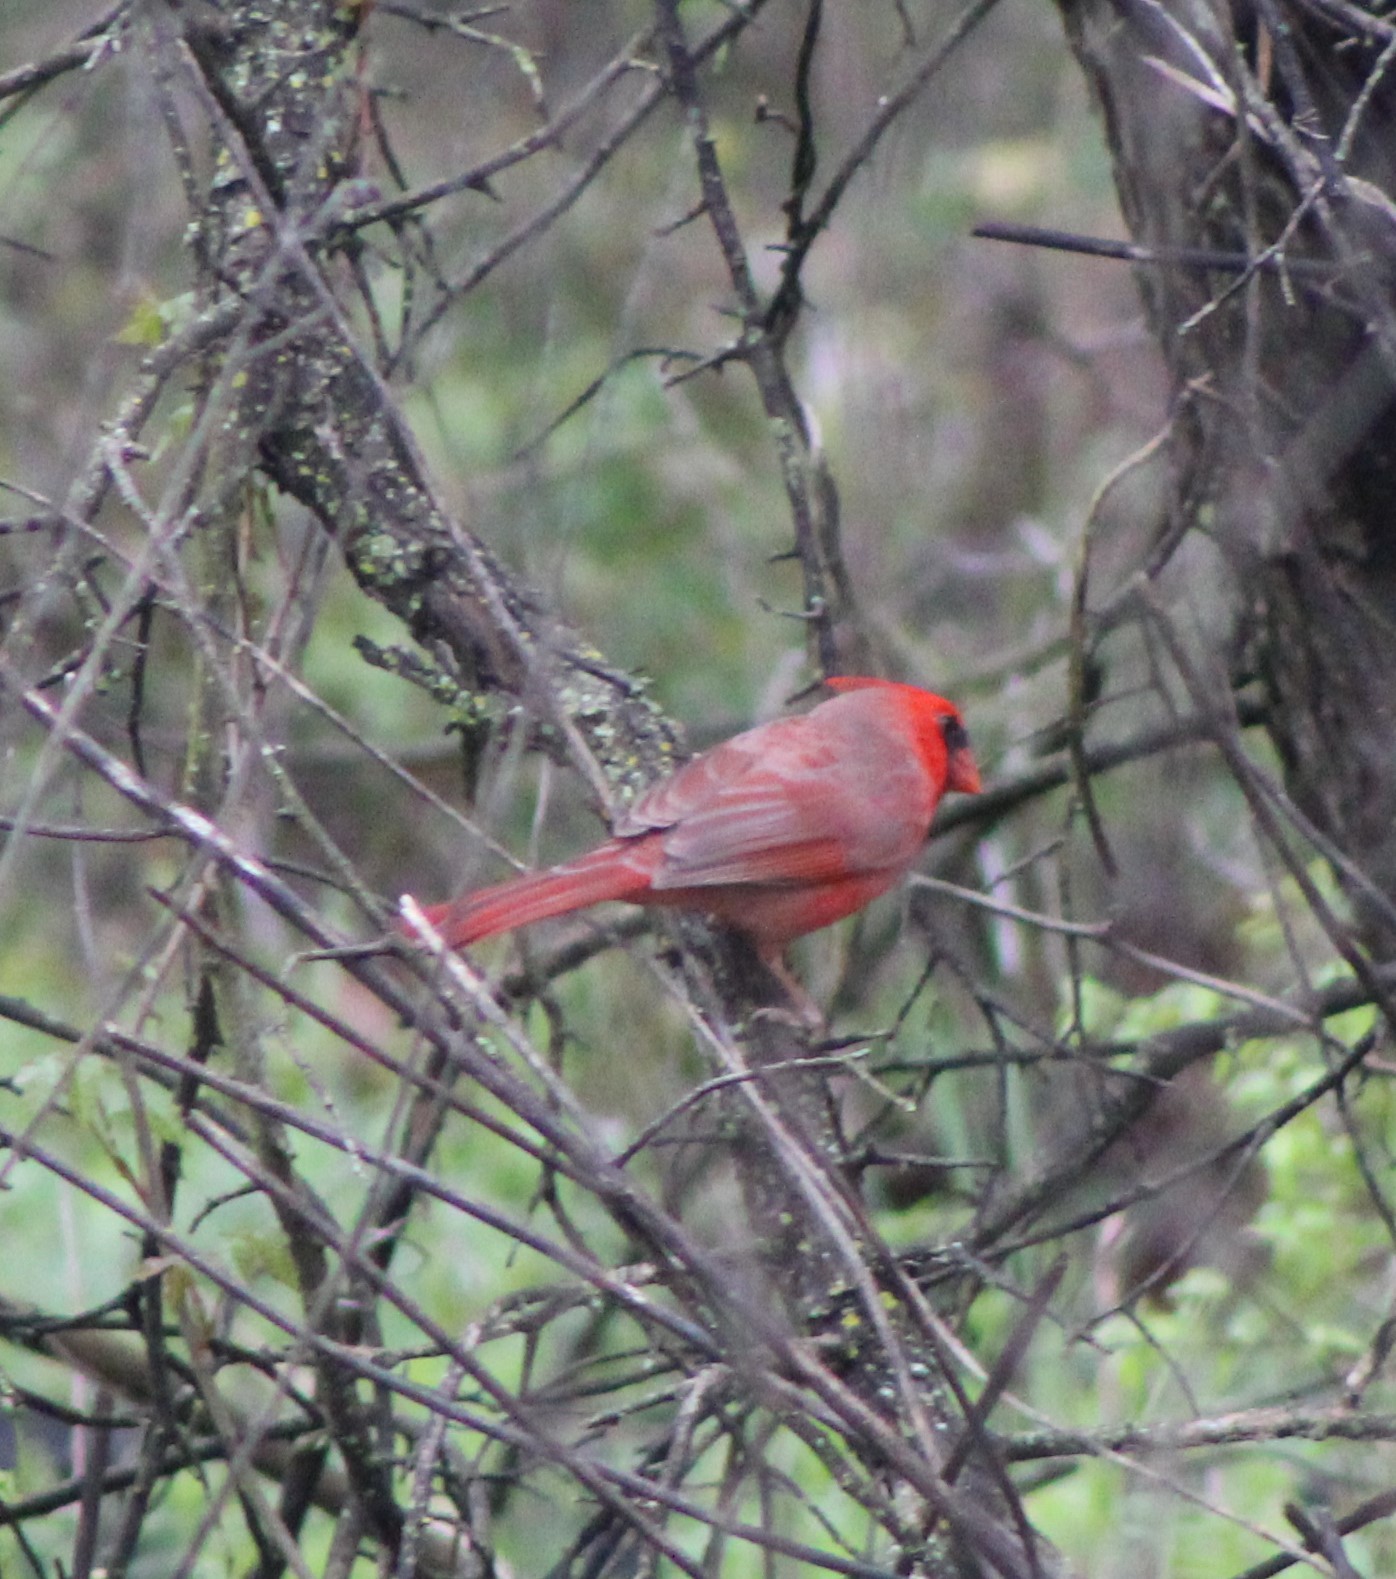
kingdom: Animalia
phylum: Chordata
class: Aves
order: Passeriformes
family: Cardinalidae
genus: Cardinalis
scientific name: Cardinalis cardinalis
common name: Northern cardinal
